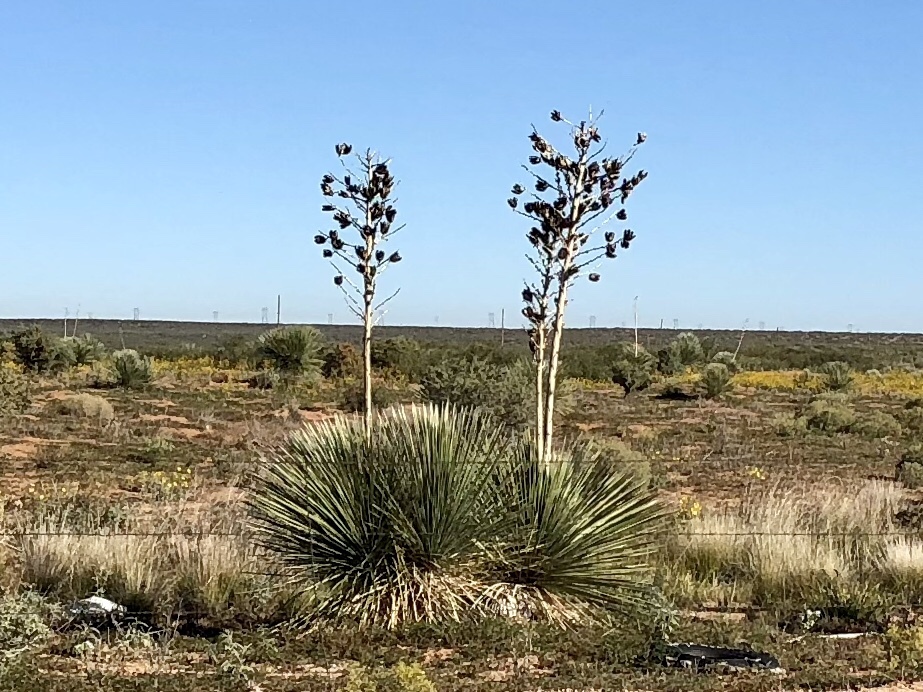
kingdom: Plantae
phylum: Tracheophyta
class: Liliopsida
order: Asparagales
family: Asparagaceae
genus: Yucca
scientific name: Yucca elata
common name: Palmella
